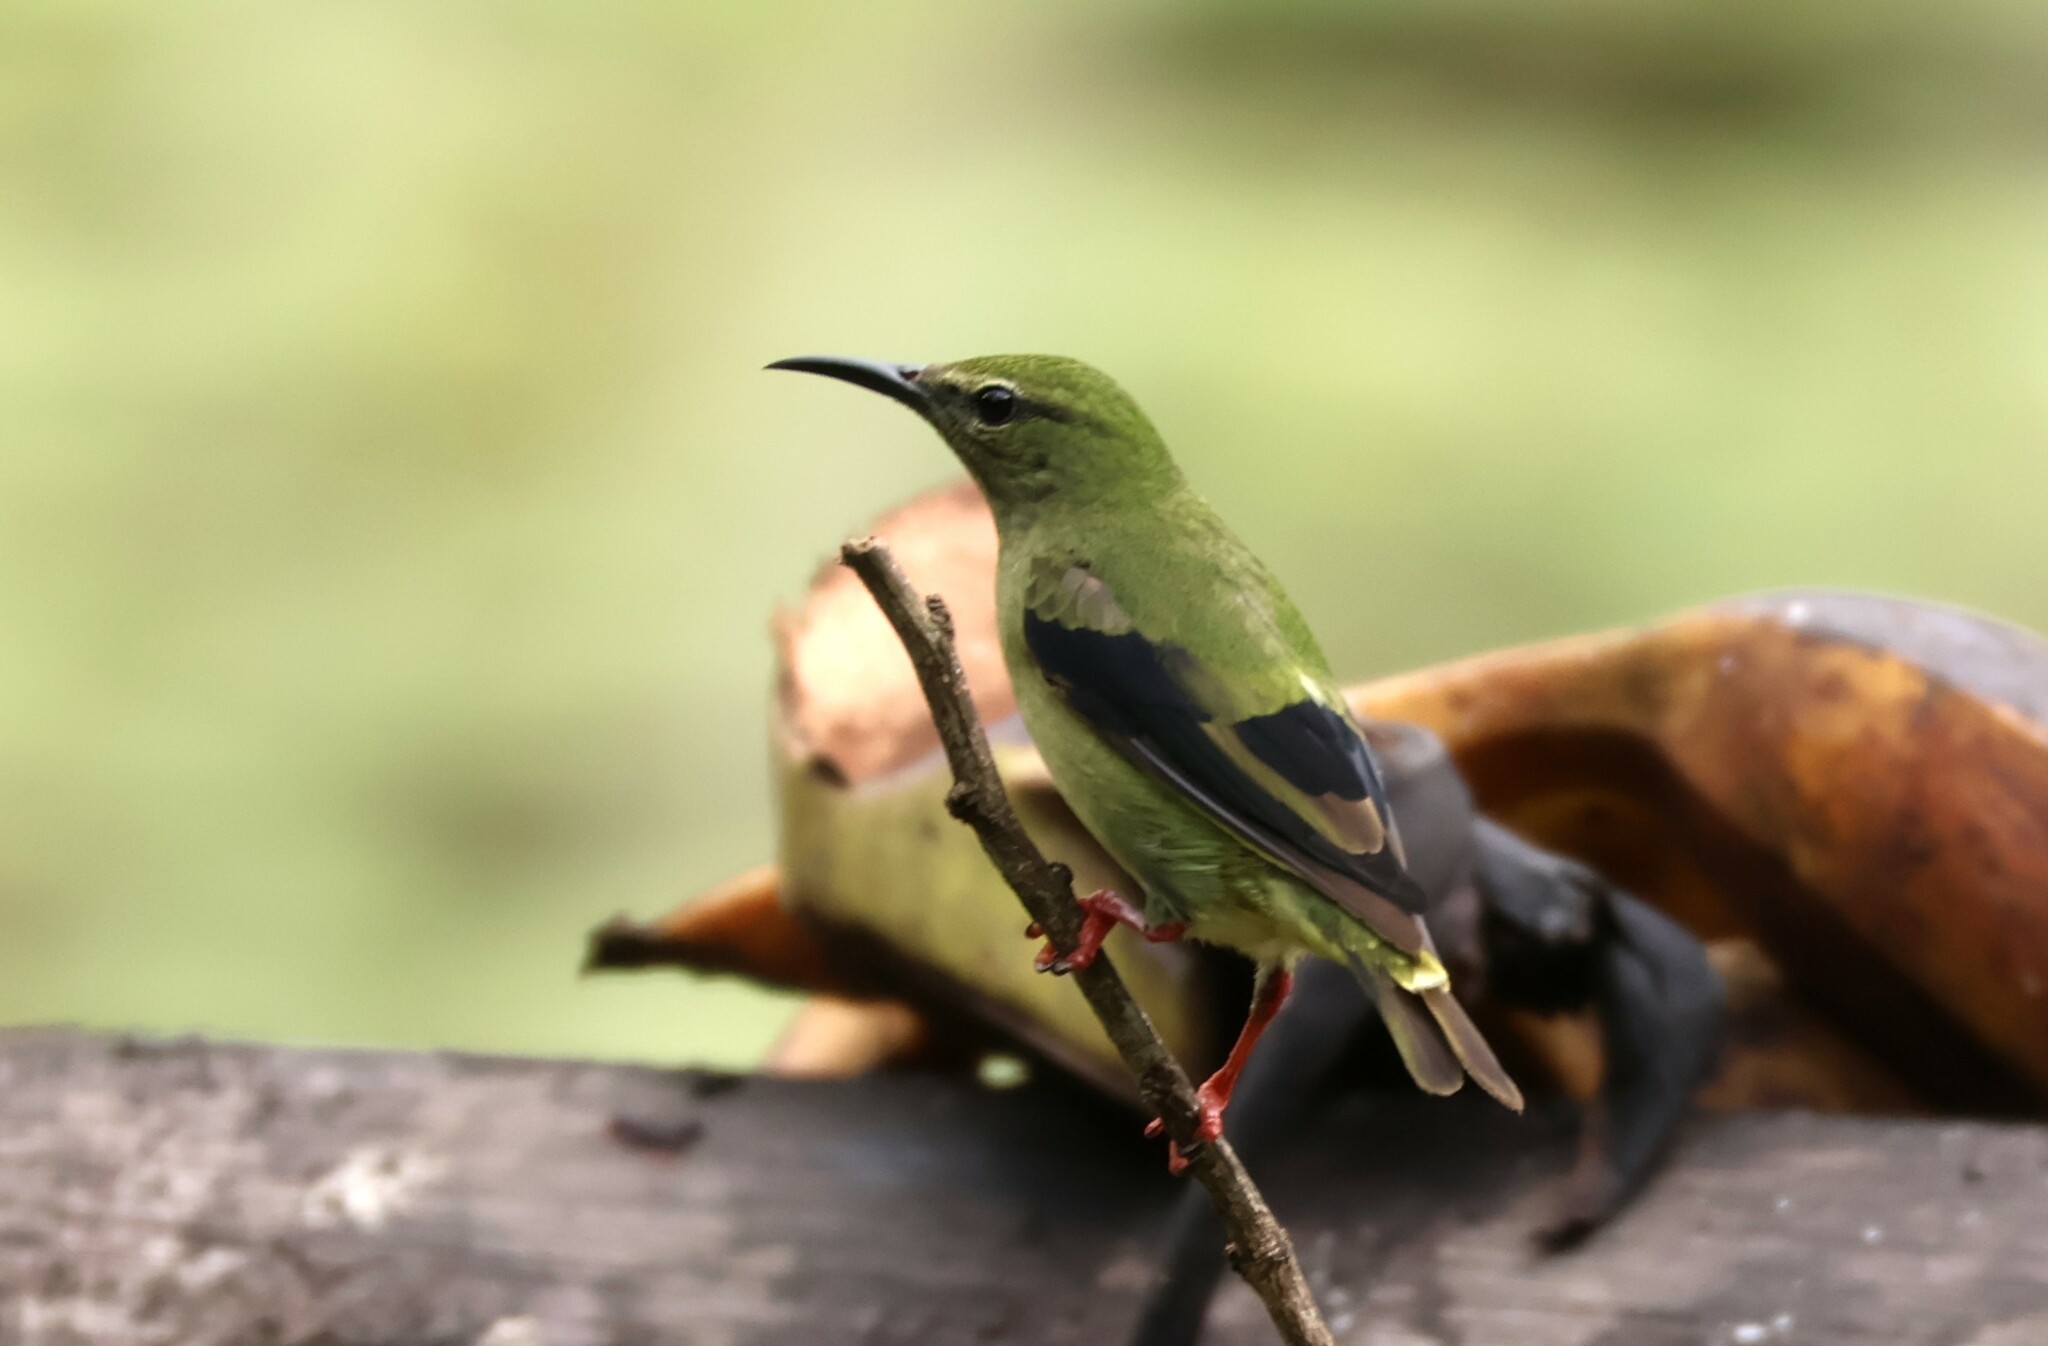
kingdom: Animalia
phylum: Chordata
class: Aves
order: Passeriformes
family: Thraupidae
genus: Cyanerpes
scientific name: Cyanerpes cyaneus
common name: Red-legged honeycreeper
